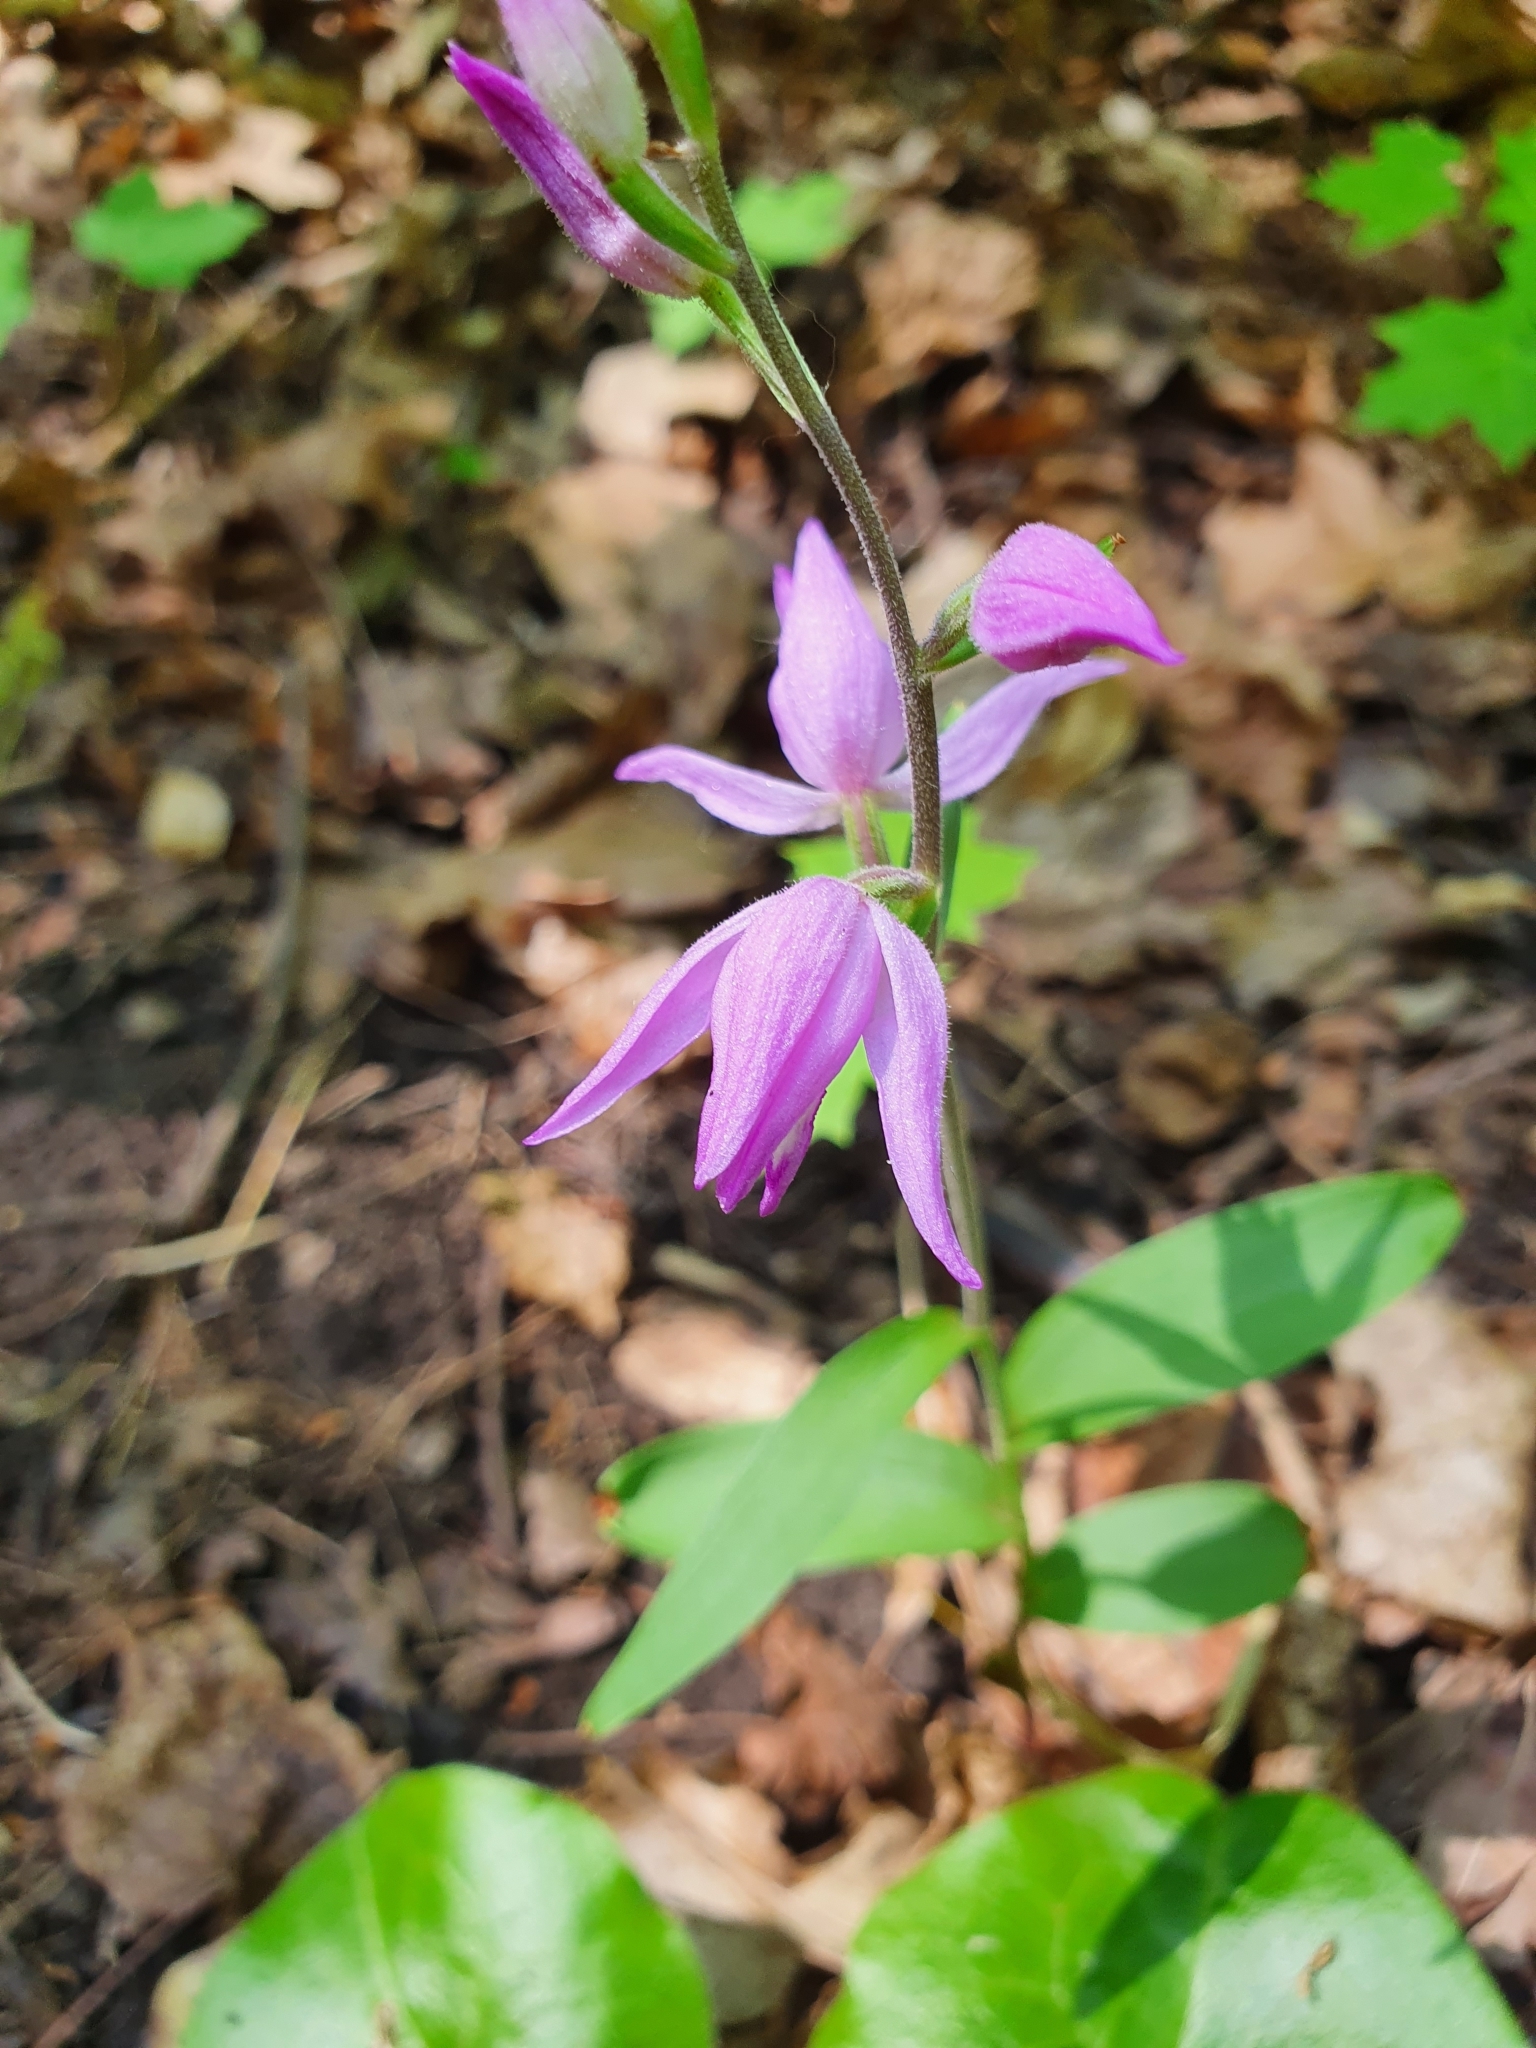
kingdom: Plantae
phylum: Tracheophyta
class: Liliopsida
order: Asparagales
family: Orchidaceae
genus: Cephalanthera
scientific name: Cephalanthera rubra
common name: Red helleborine
